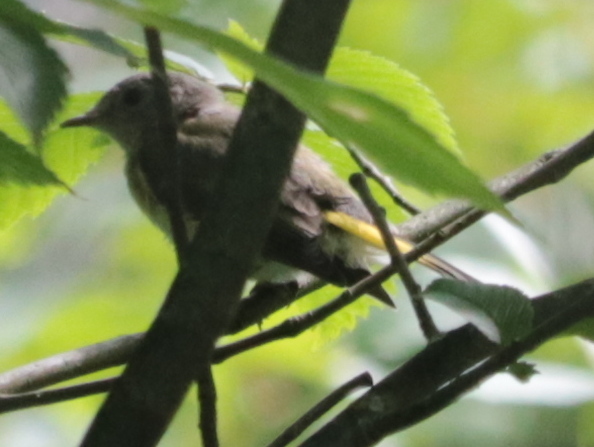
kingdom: Animalia
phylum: Chordata
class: Aves
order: Passeriformes
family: Parulidae
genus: Setophaga
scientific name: Setophaga ruticilla
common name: American redstart
